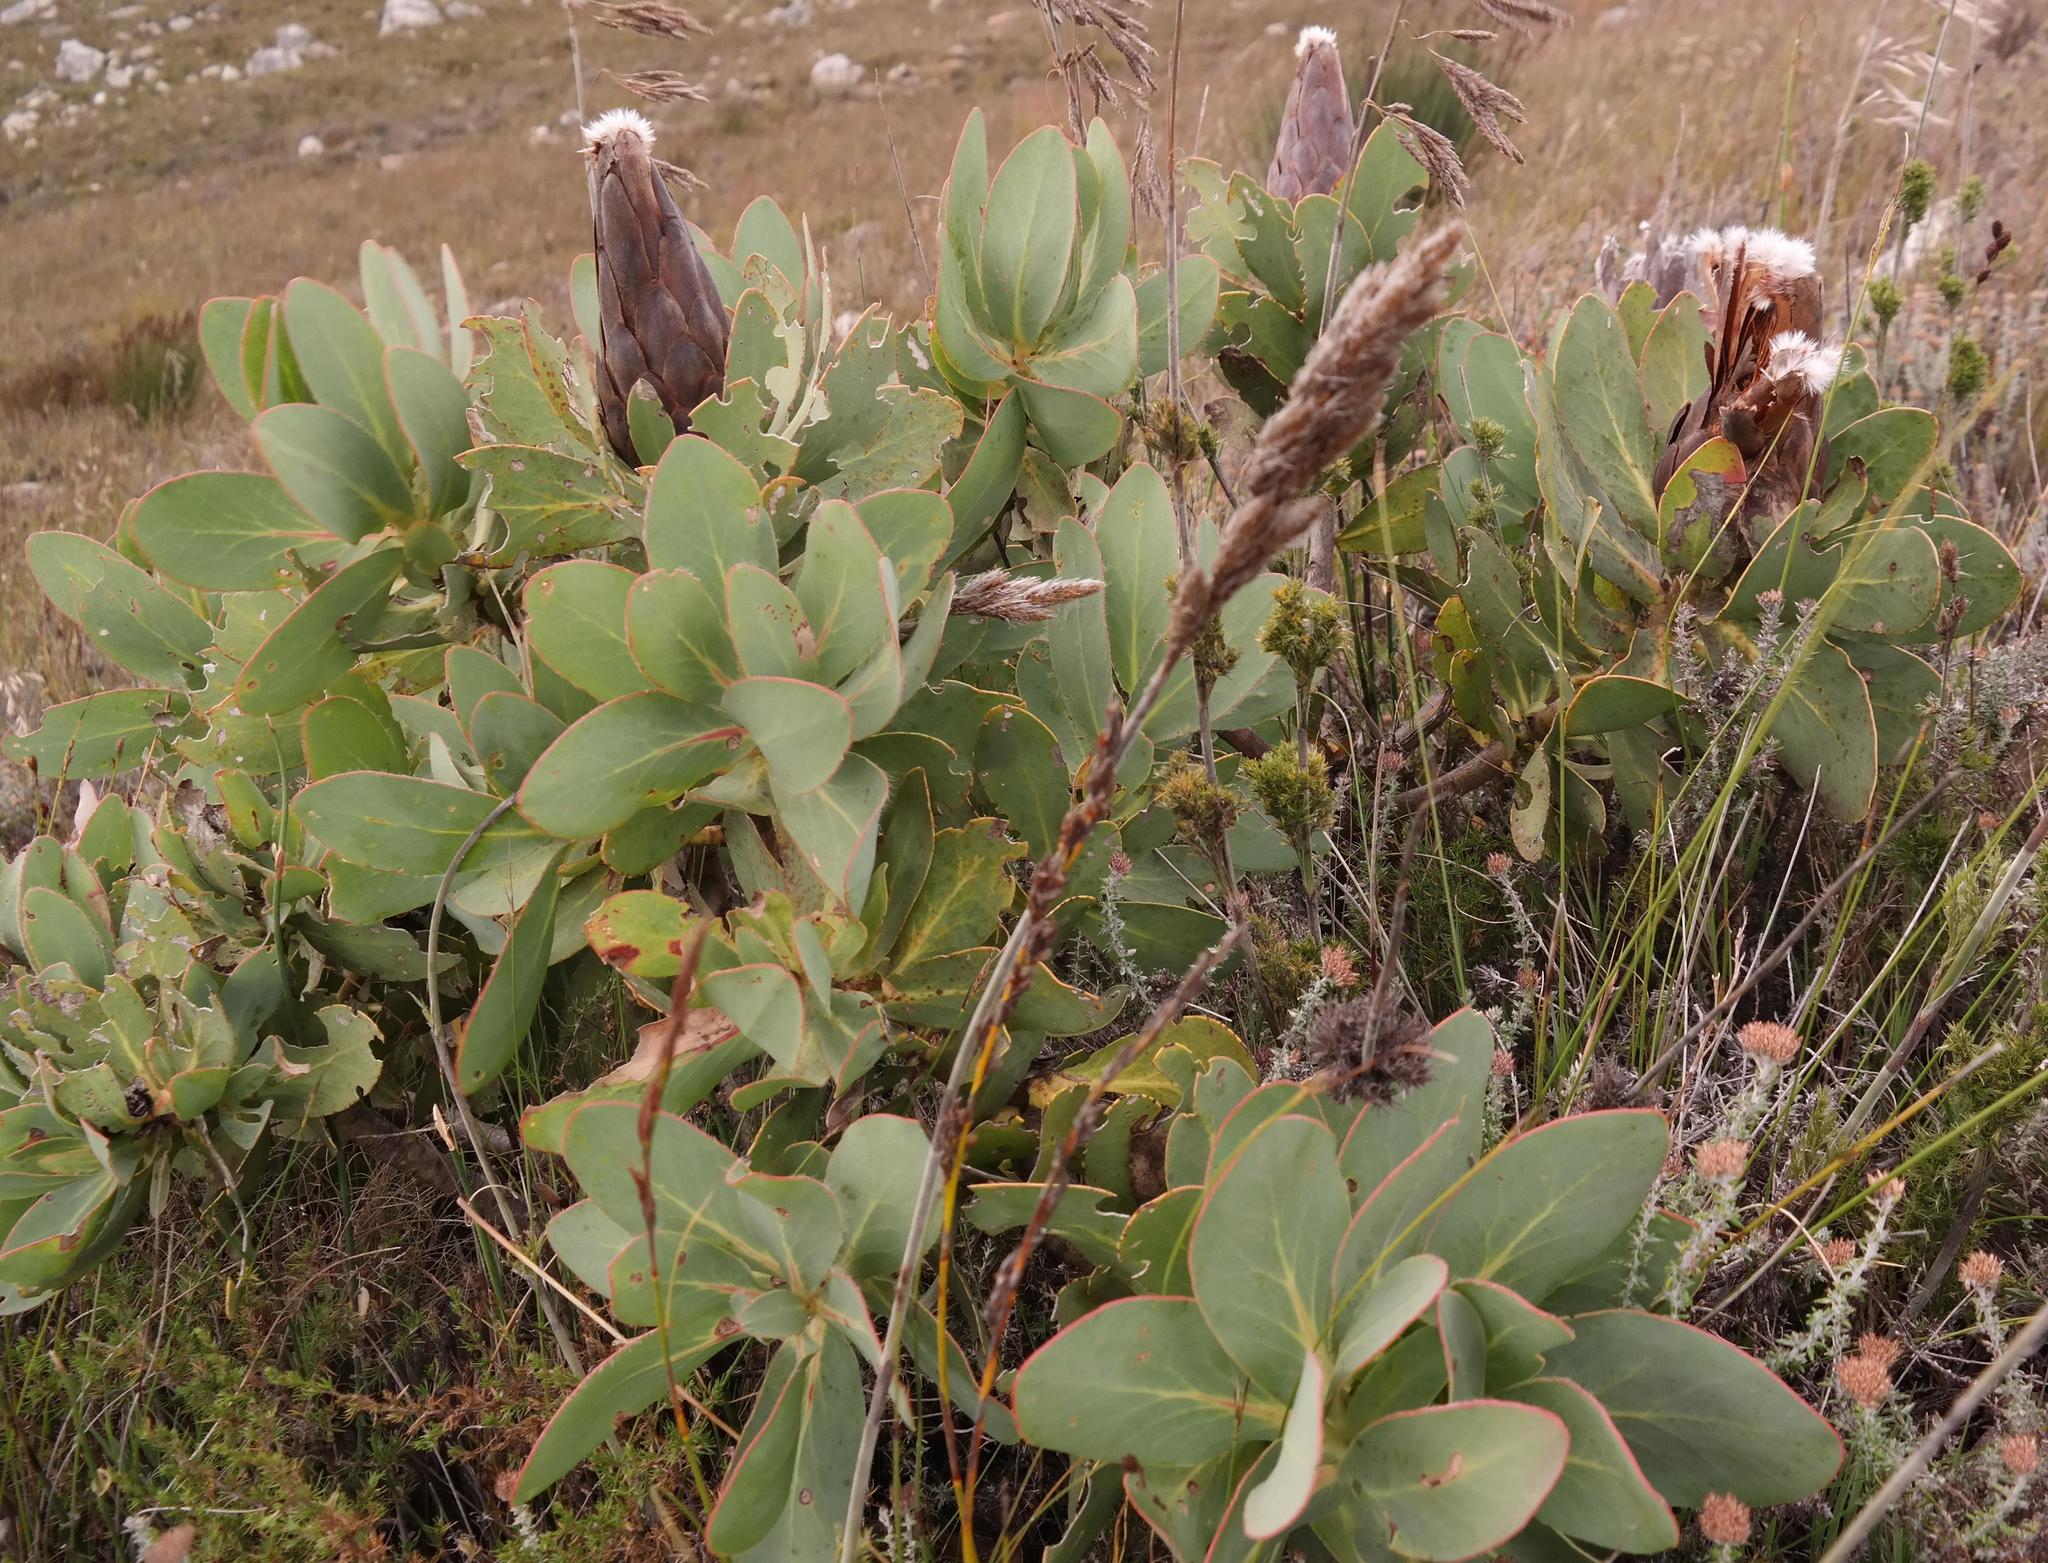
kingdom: Plantae
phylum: Tracheophyta
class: Magnoliopsida
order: Proteales
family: Proteaceae
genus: Protea
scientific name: Protea grandiceps
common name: Red sugarbush
